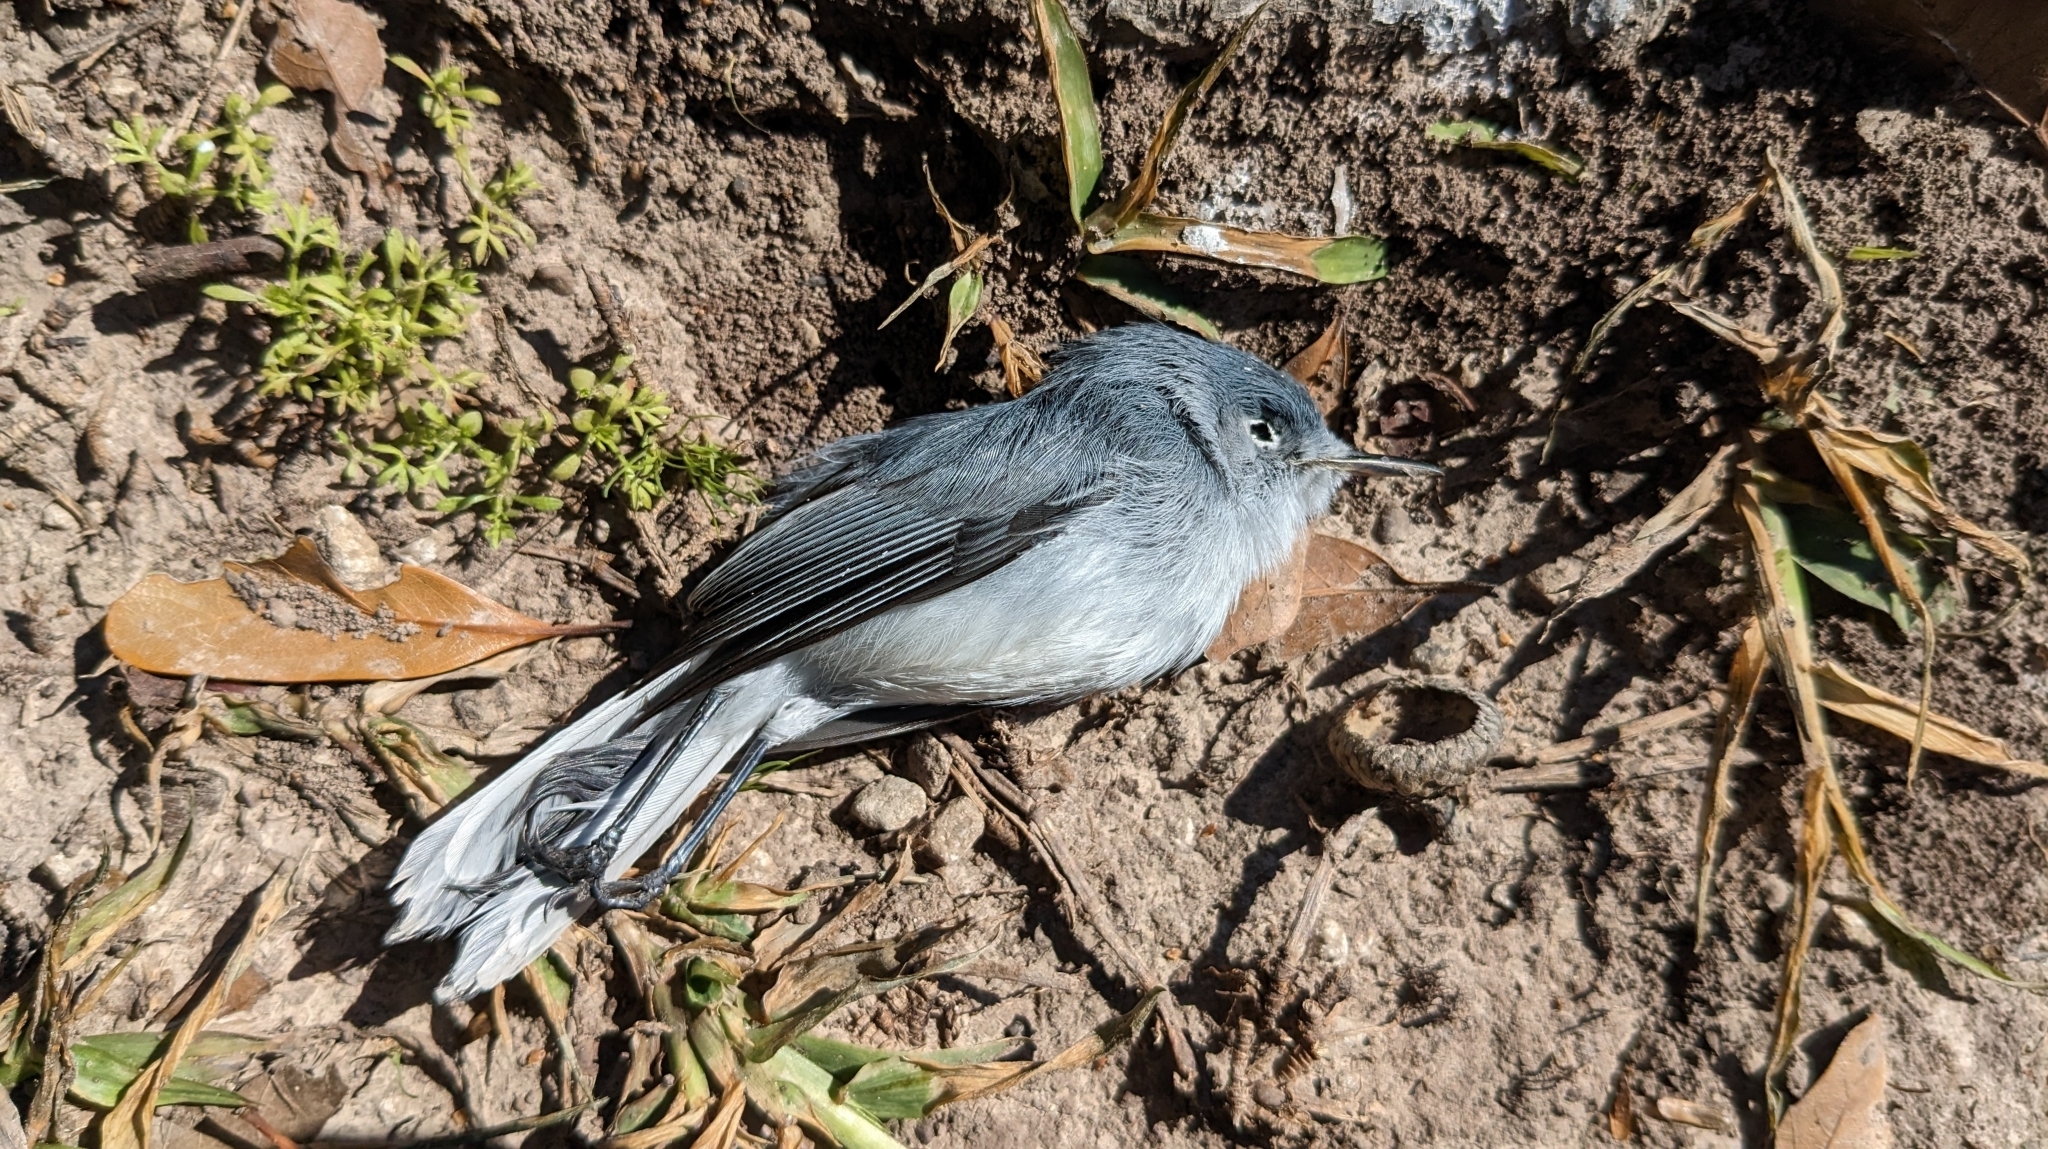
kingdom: Animalia
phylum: Chordata
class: Aves
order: Passeriformes
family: Polioptilidae
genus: Polioptila
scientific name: Polioptila caerulea
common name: Blue-gray gnatcatcher
